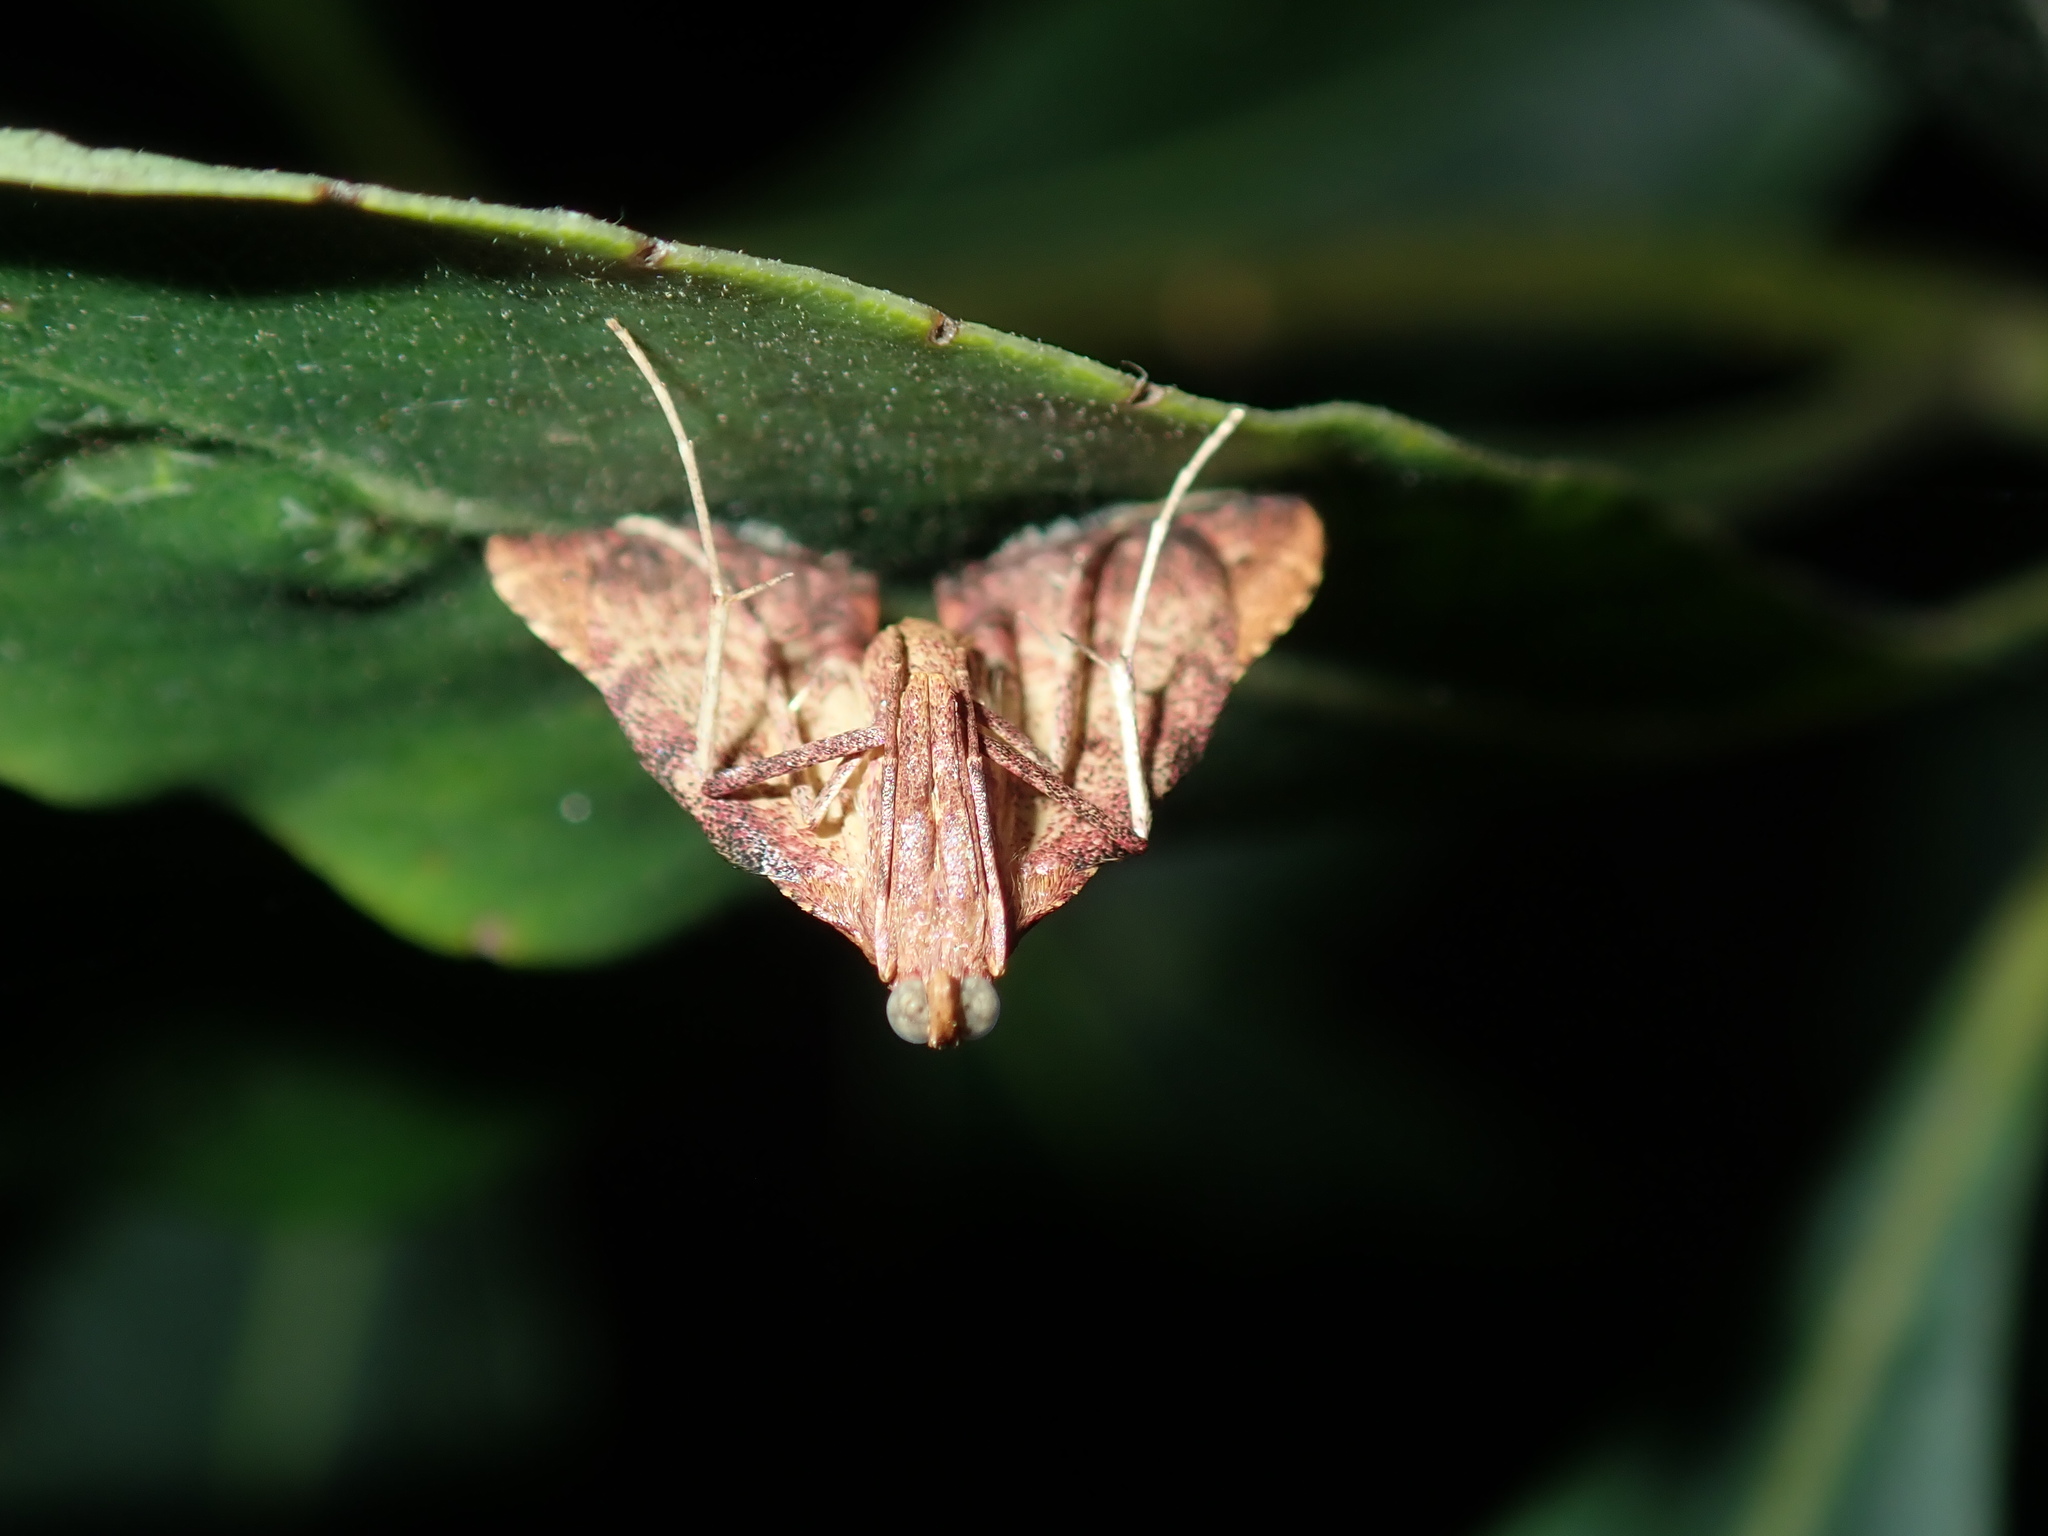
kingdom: Animalia
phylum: Arthropoda
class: Insecta
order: Lepidoptera
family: Pyralidae
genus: Endotricha
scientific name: Endotricha pyrosalis
